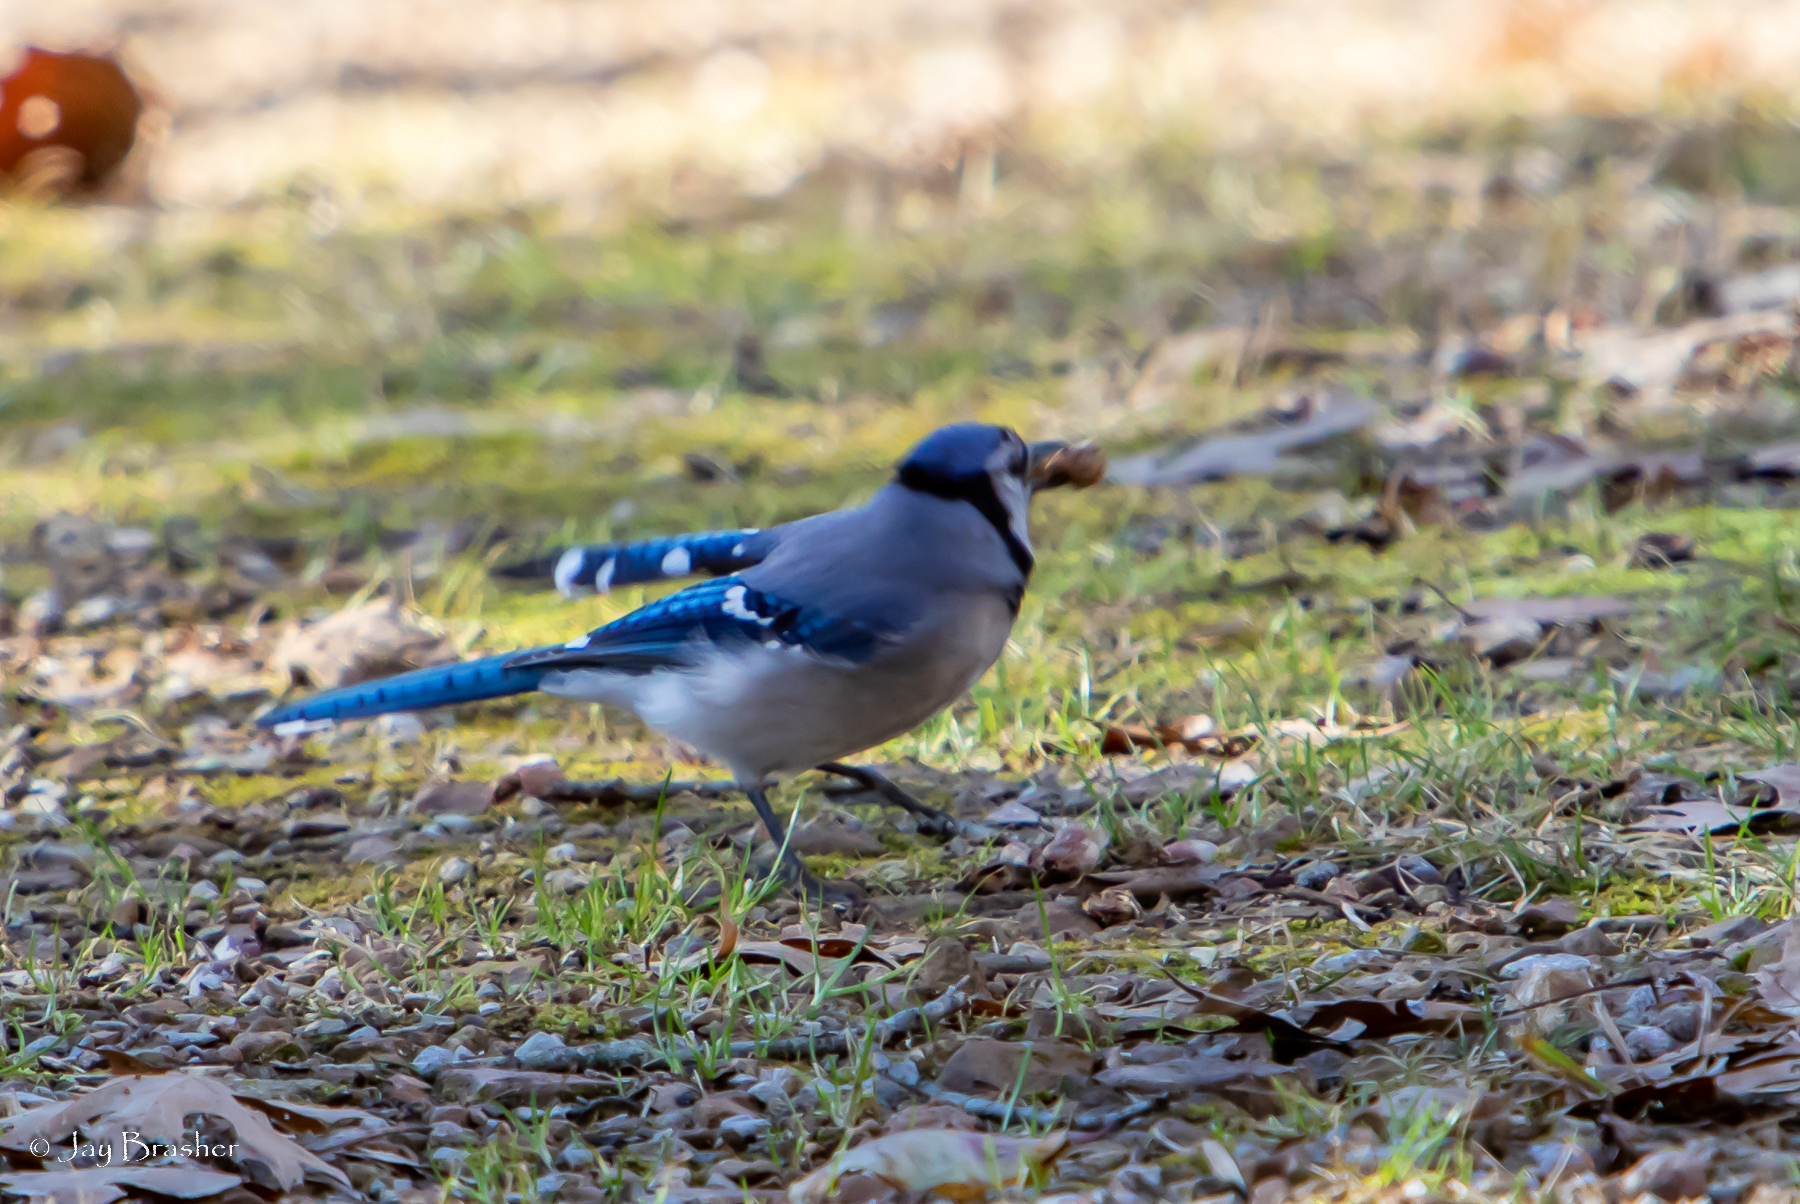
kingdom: Animalia
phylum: Chordata
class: Aves
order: Passeriformes
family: Corvidae
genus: Cyanocitta
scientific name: Cyanocitta cristata
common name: Blue jay
